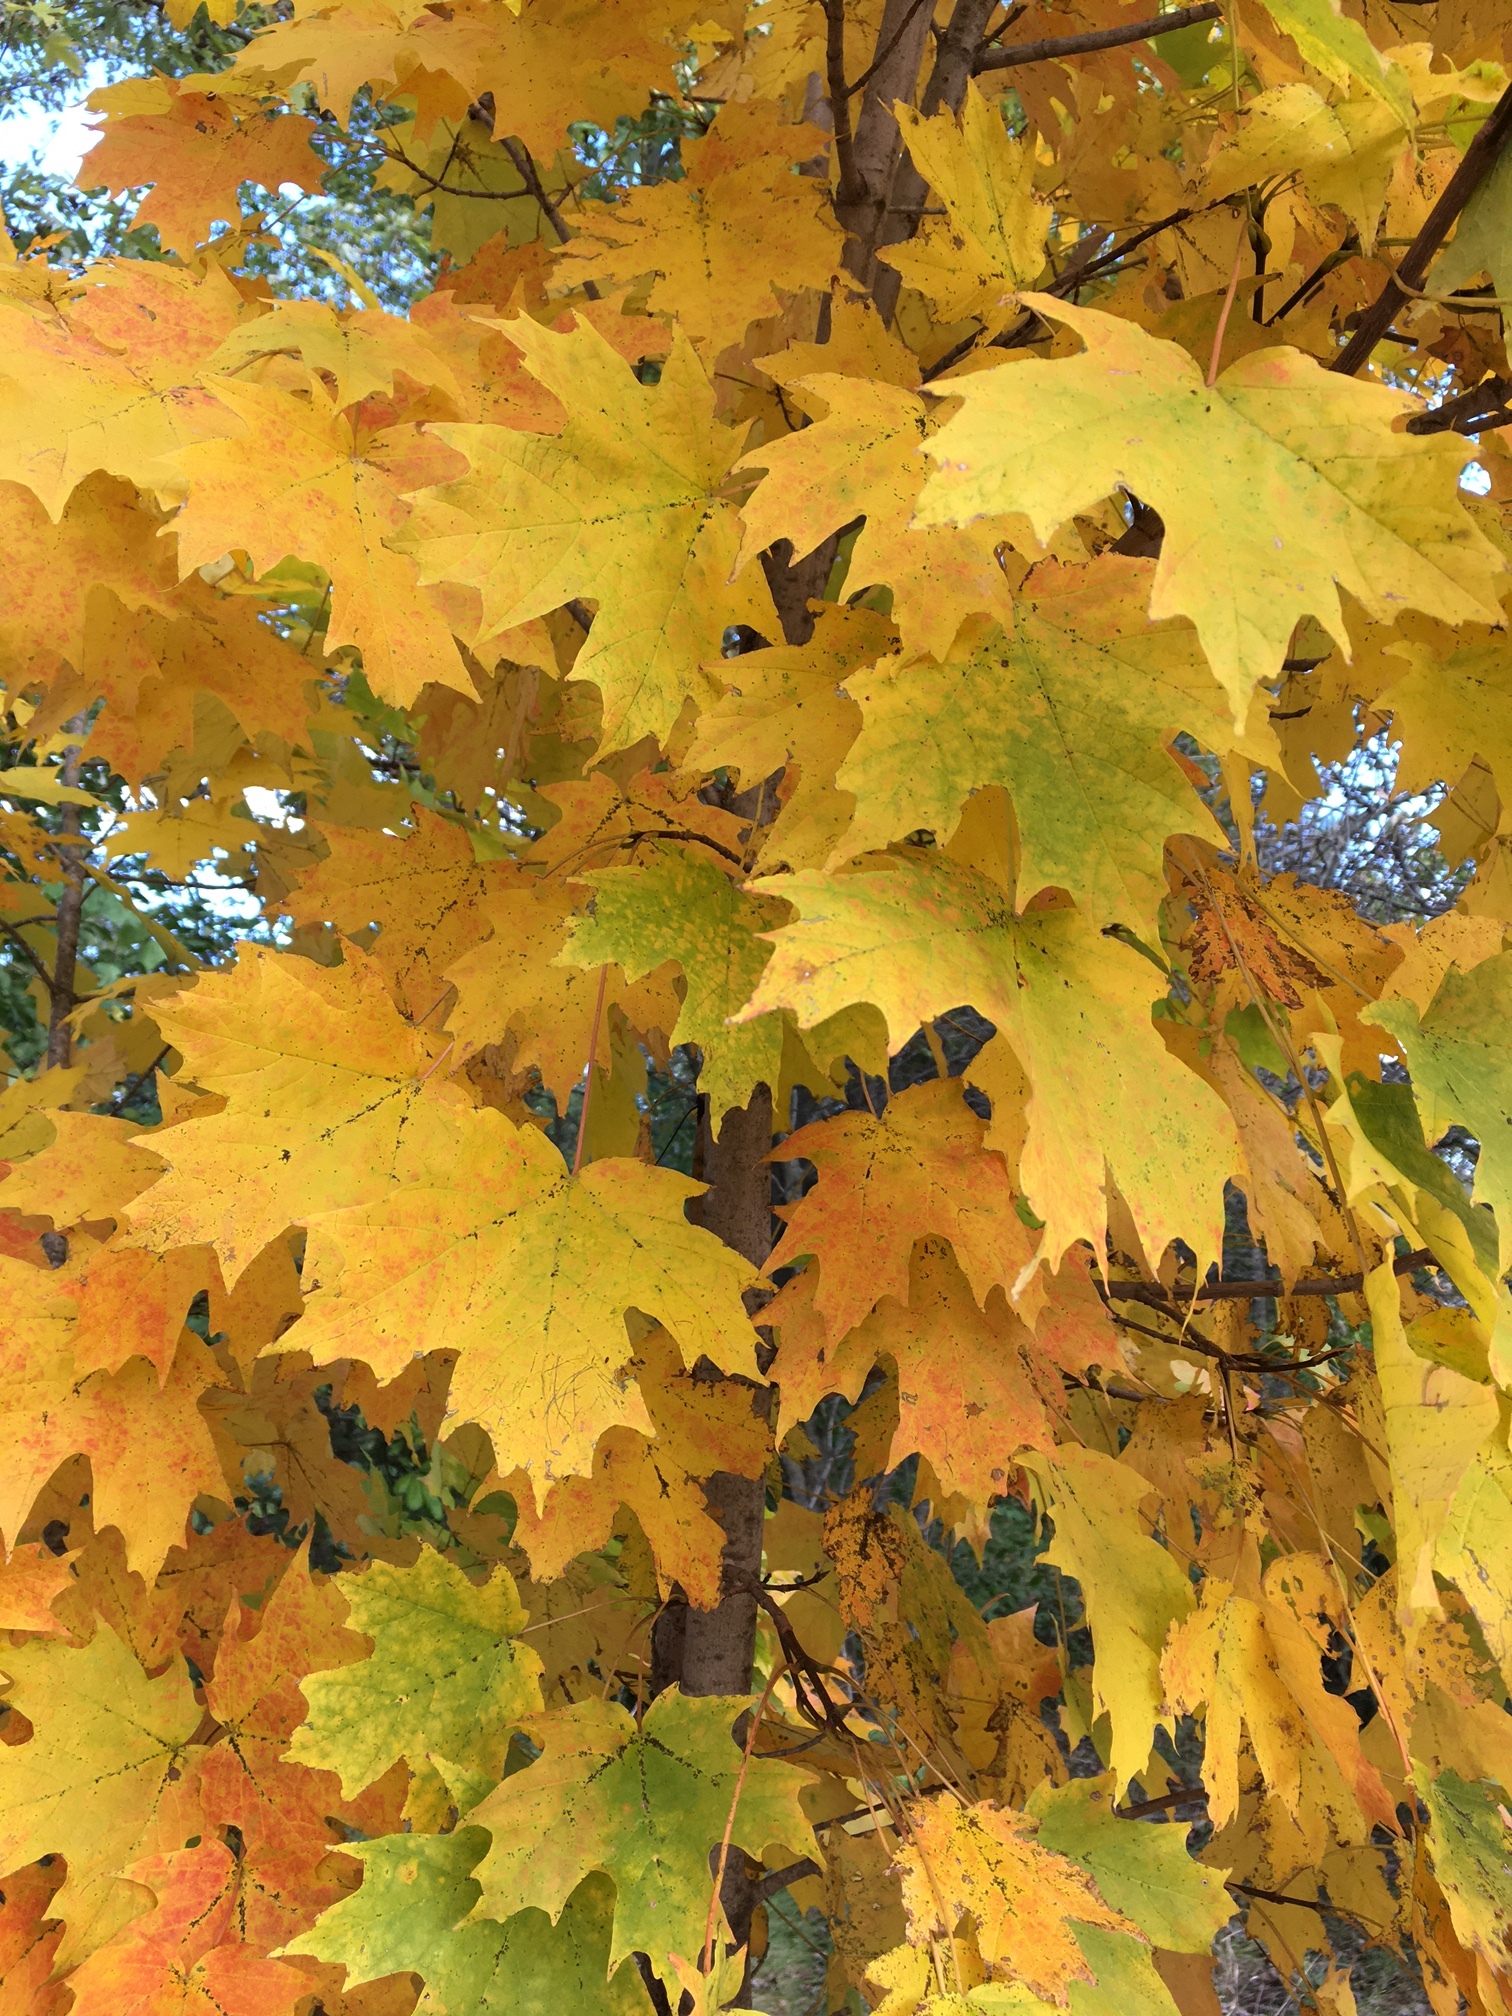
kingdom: Plantae
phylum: Tracheophyta
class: Magnoliopsida
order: Sapindales
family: Sapindaceae
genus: Acer
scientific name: Acer saccharum
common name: Sugar maple
